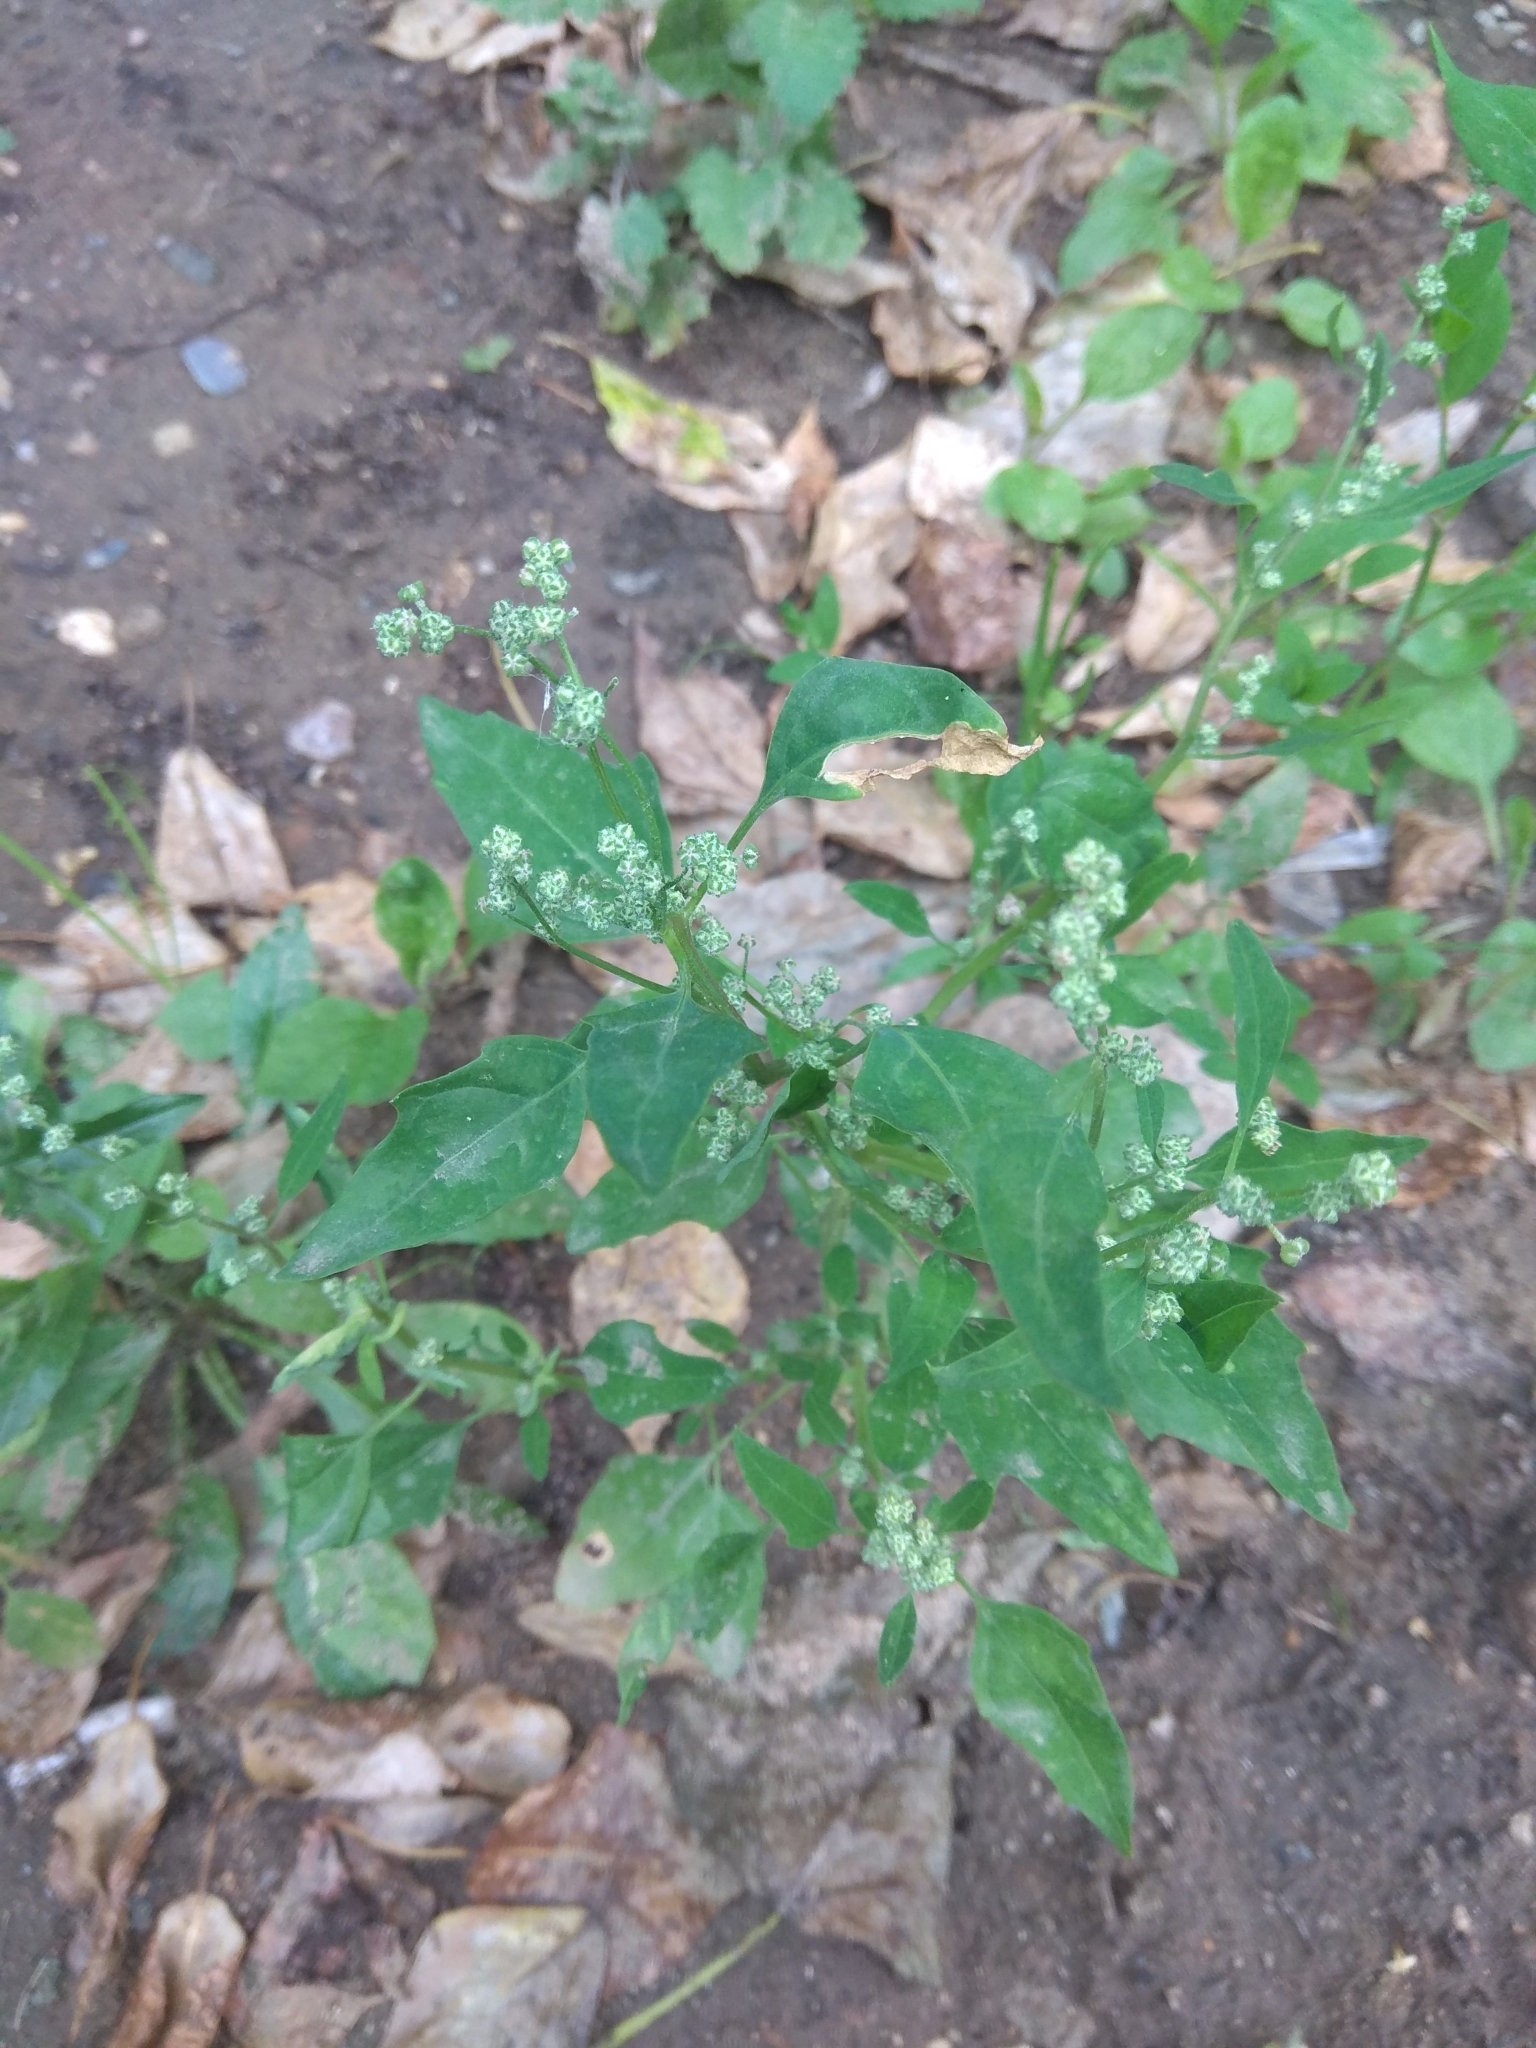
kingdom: Plantae
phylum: Tracheophyta
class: Magnoliopsida
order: Caryophyllales
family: Amaranthaceae
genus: Chenopodium
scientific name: Chenopodium album
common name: Fat-hen
